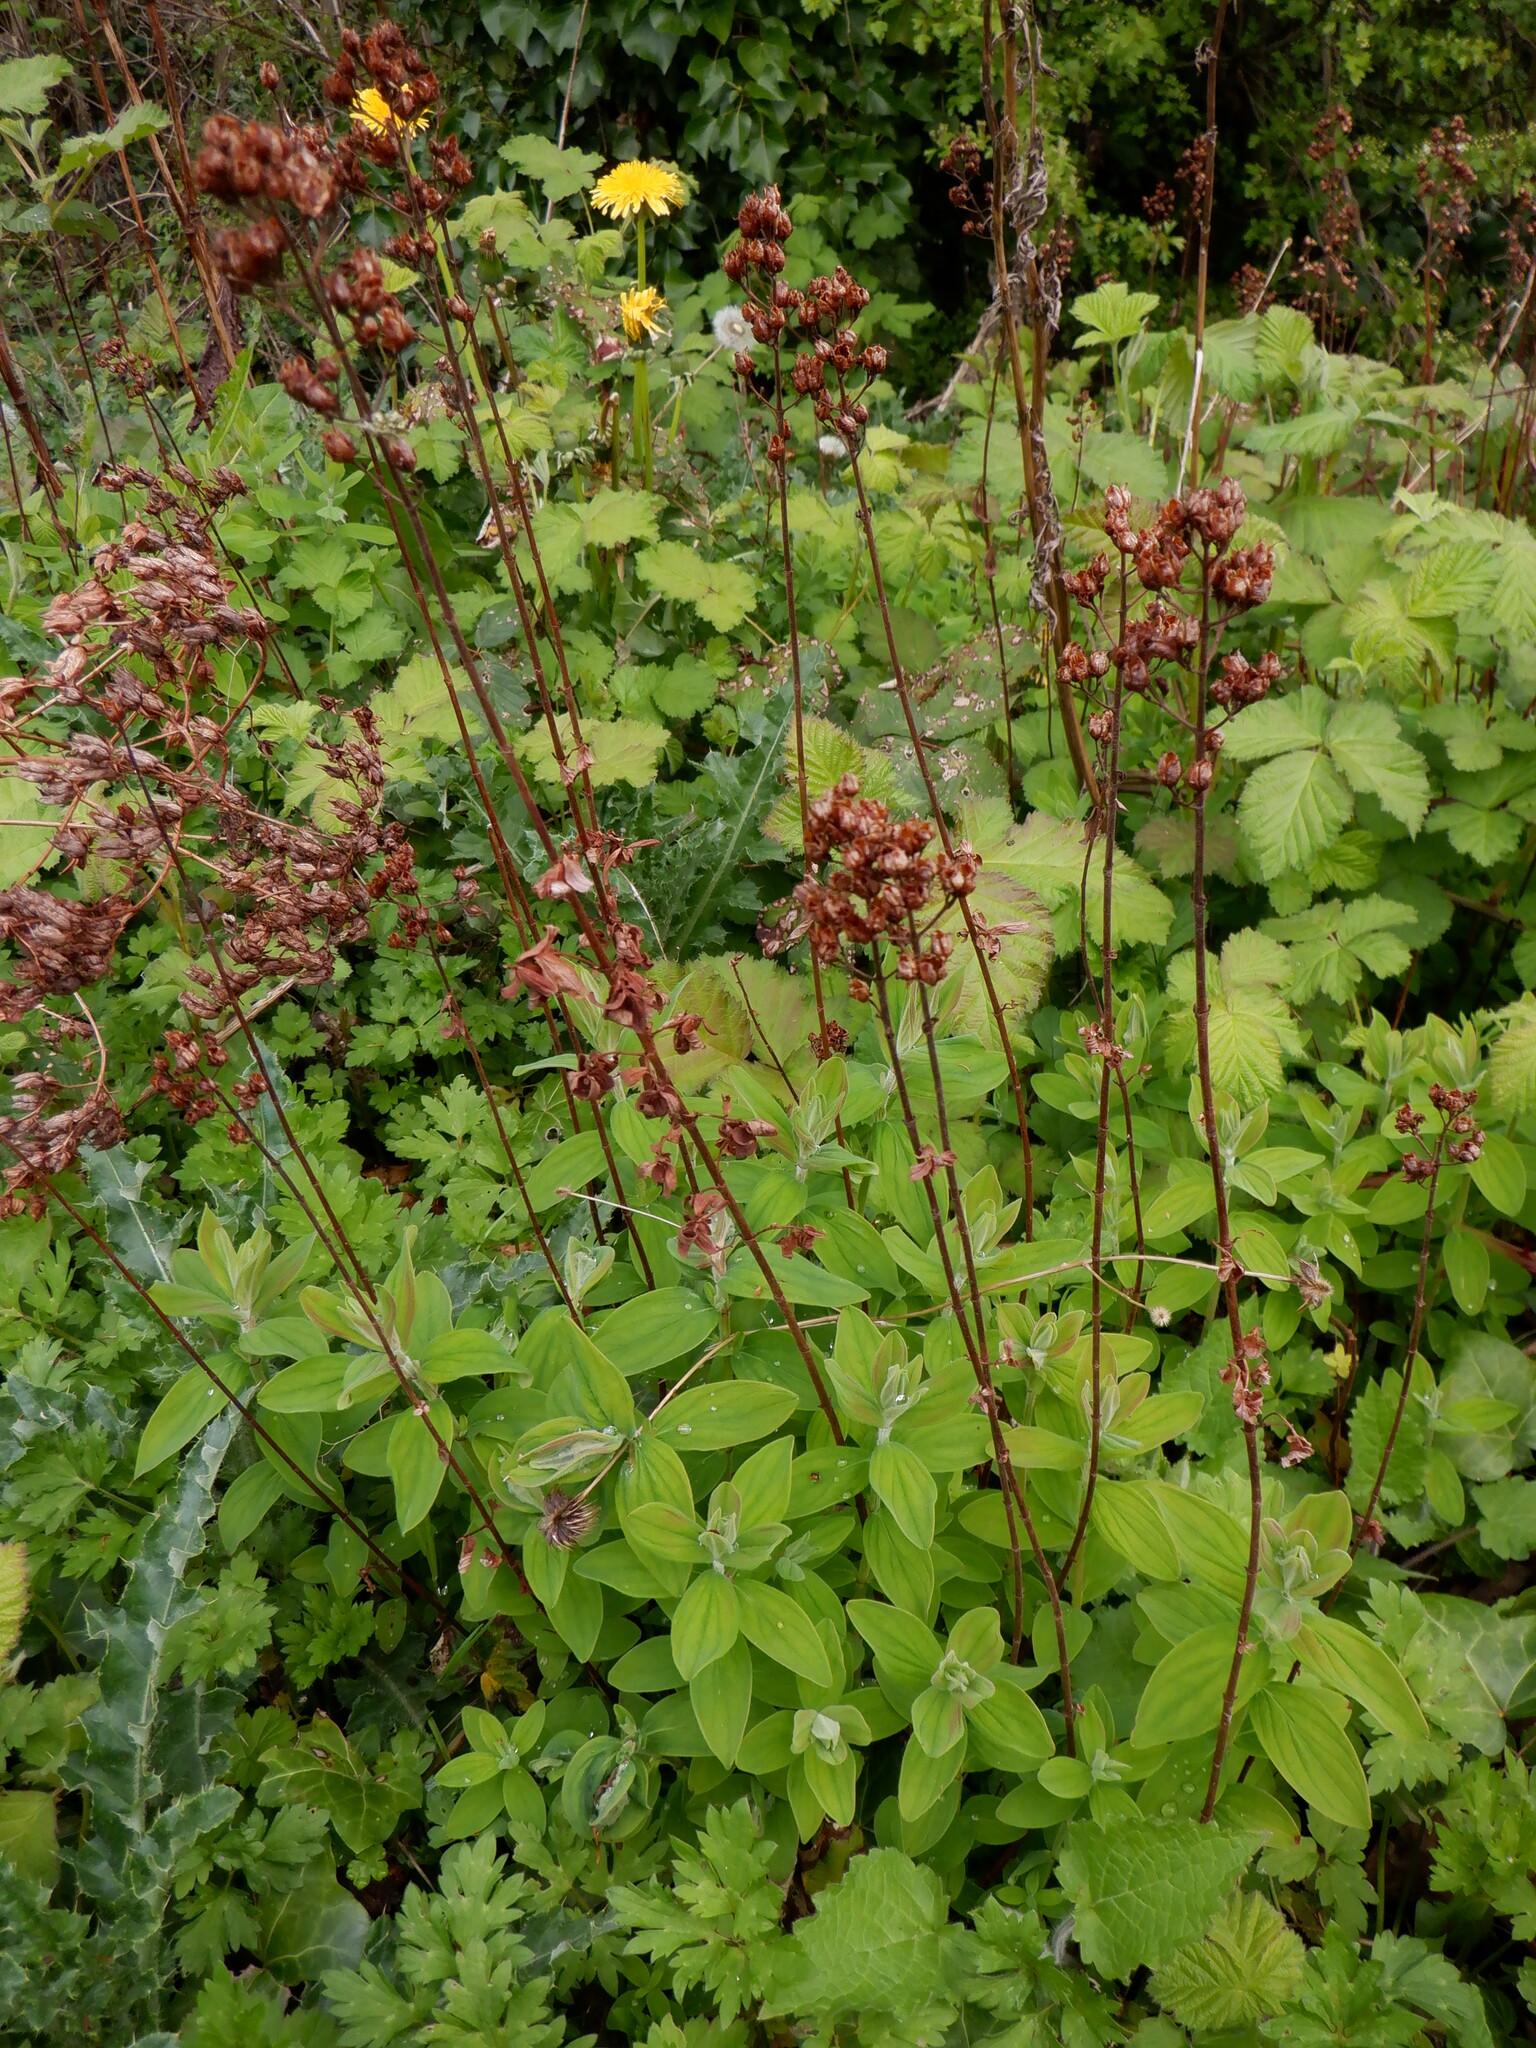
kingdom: Plantae
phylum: Tracheophyta
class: Magnoliopsida
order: Malpighiales
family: Hypericaceae
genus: Hypericum
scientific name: Hypericum hirsutum
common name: Hairy st. john's-wort
